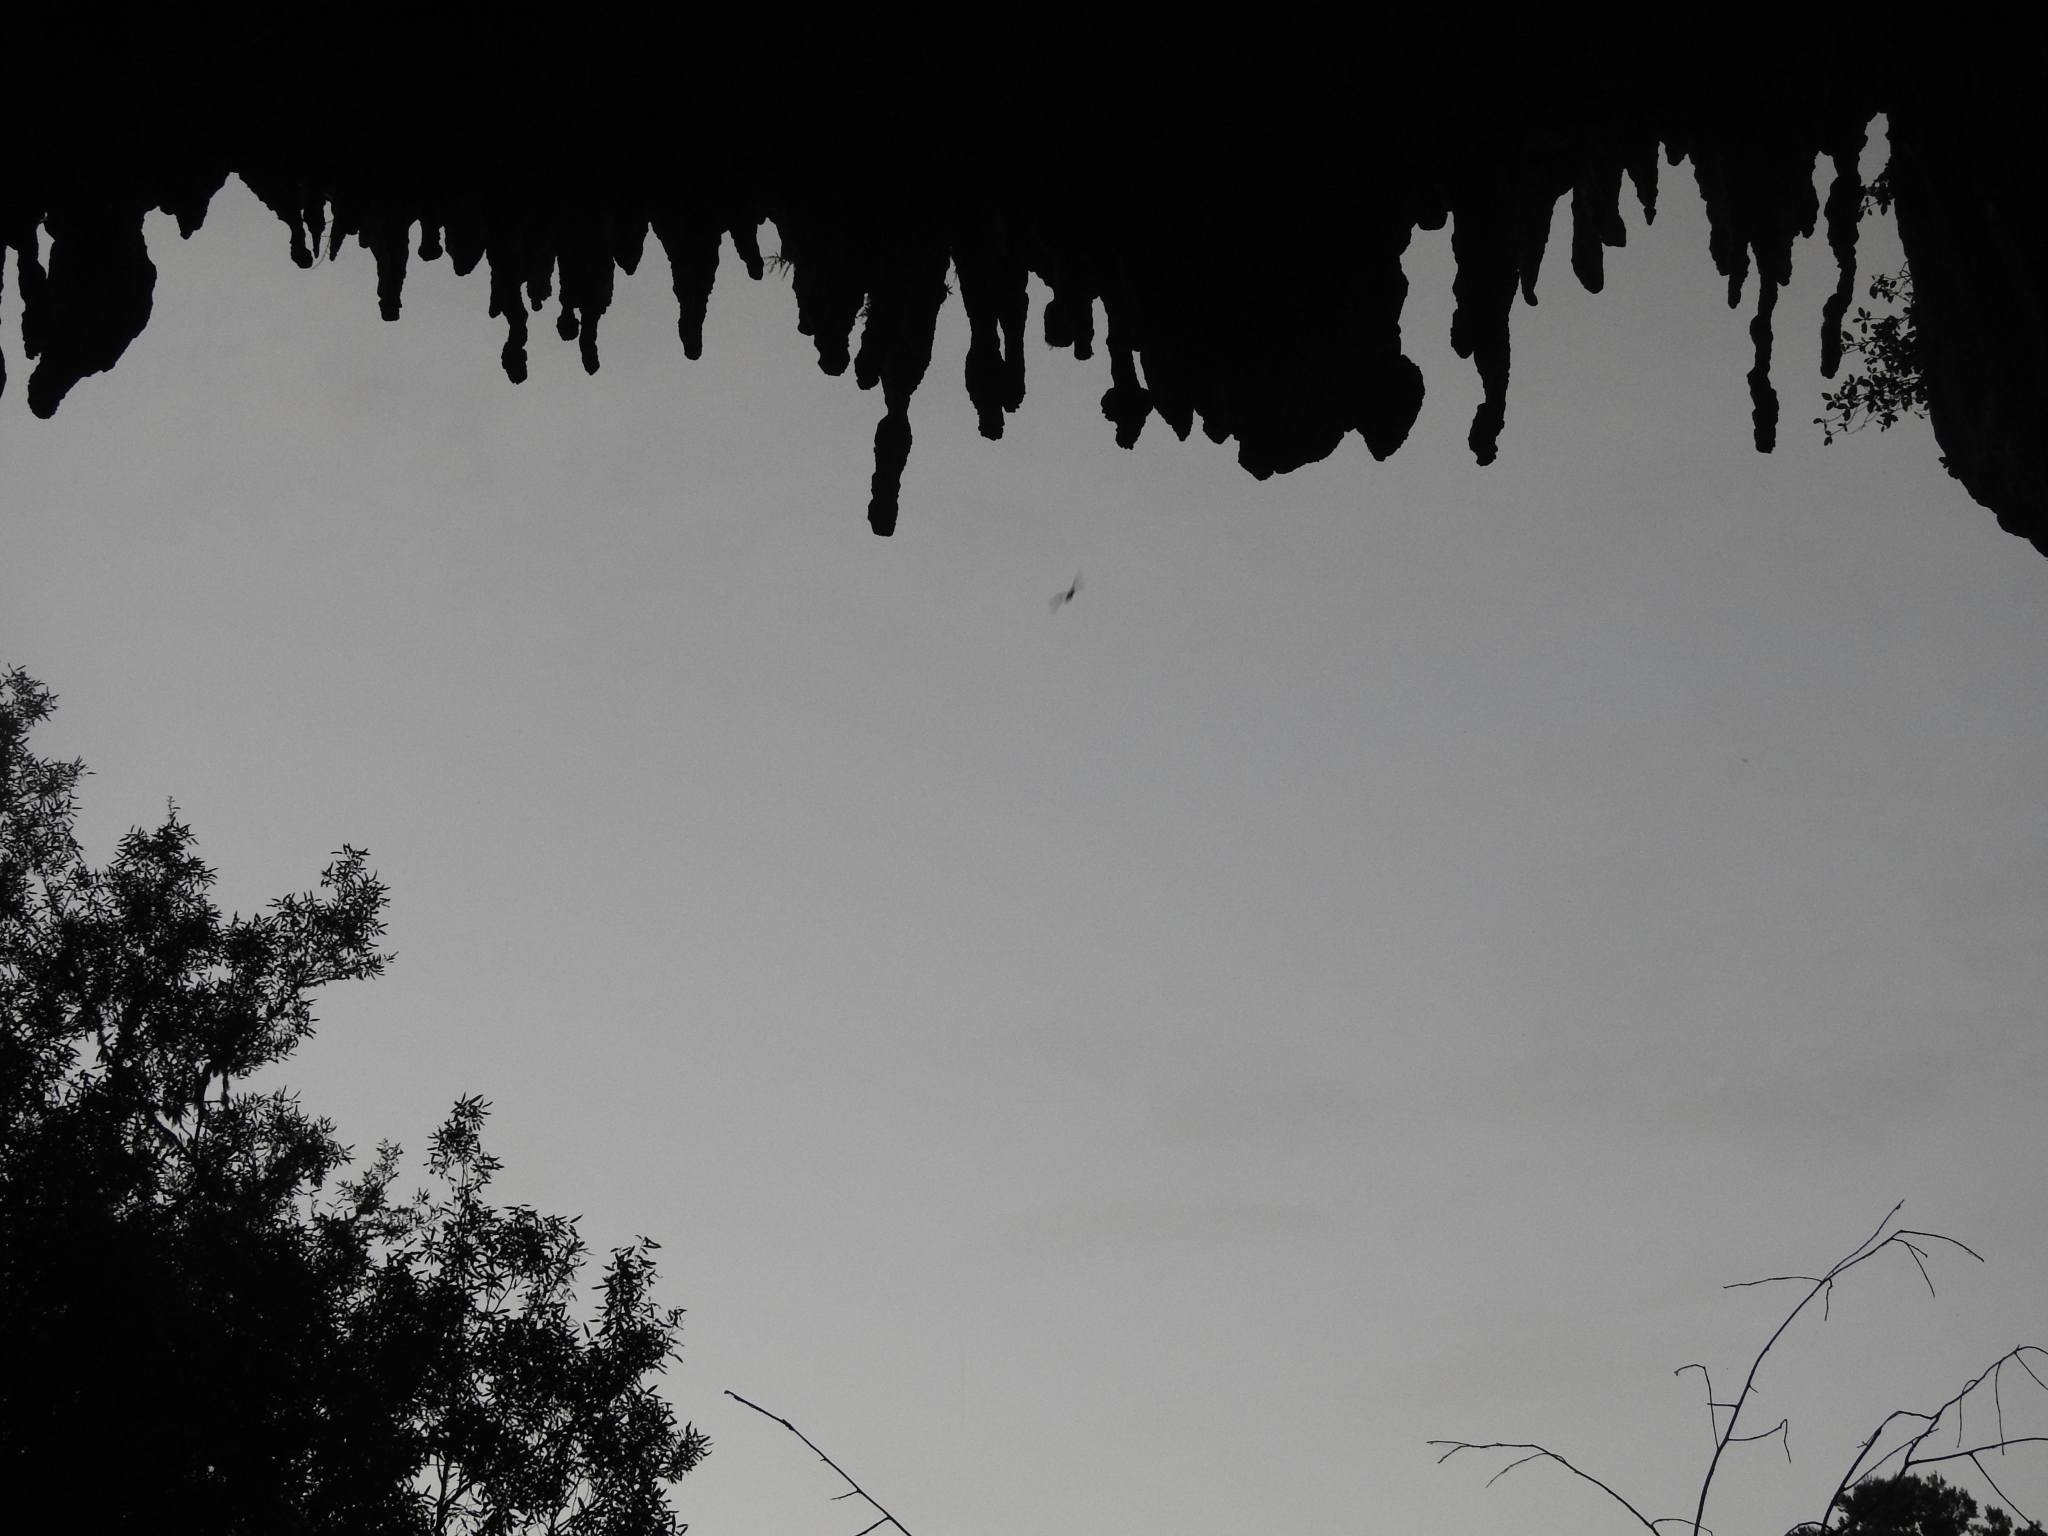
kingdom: Animalia
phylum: Chordata
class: Mammalia
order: Chiroptera
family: Vespertilionidae
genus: Chalinolobus
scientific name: Chalinolobus tuberculatus
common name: Long-tailed wattled bat
